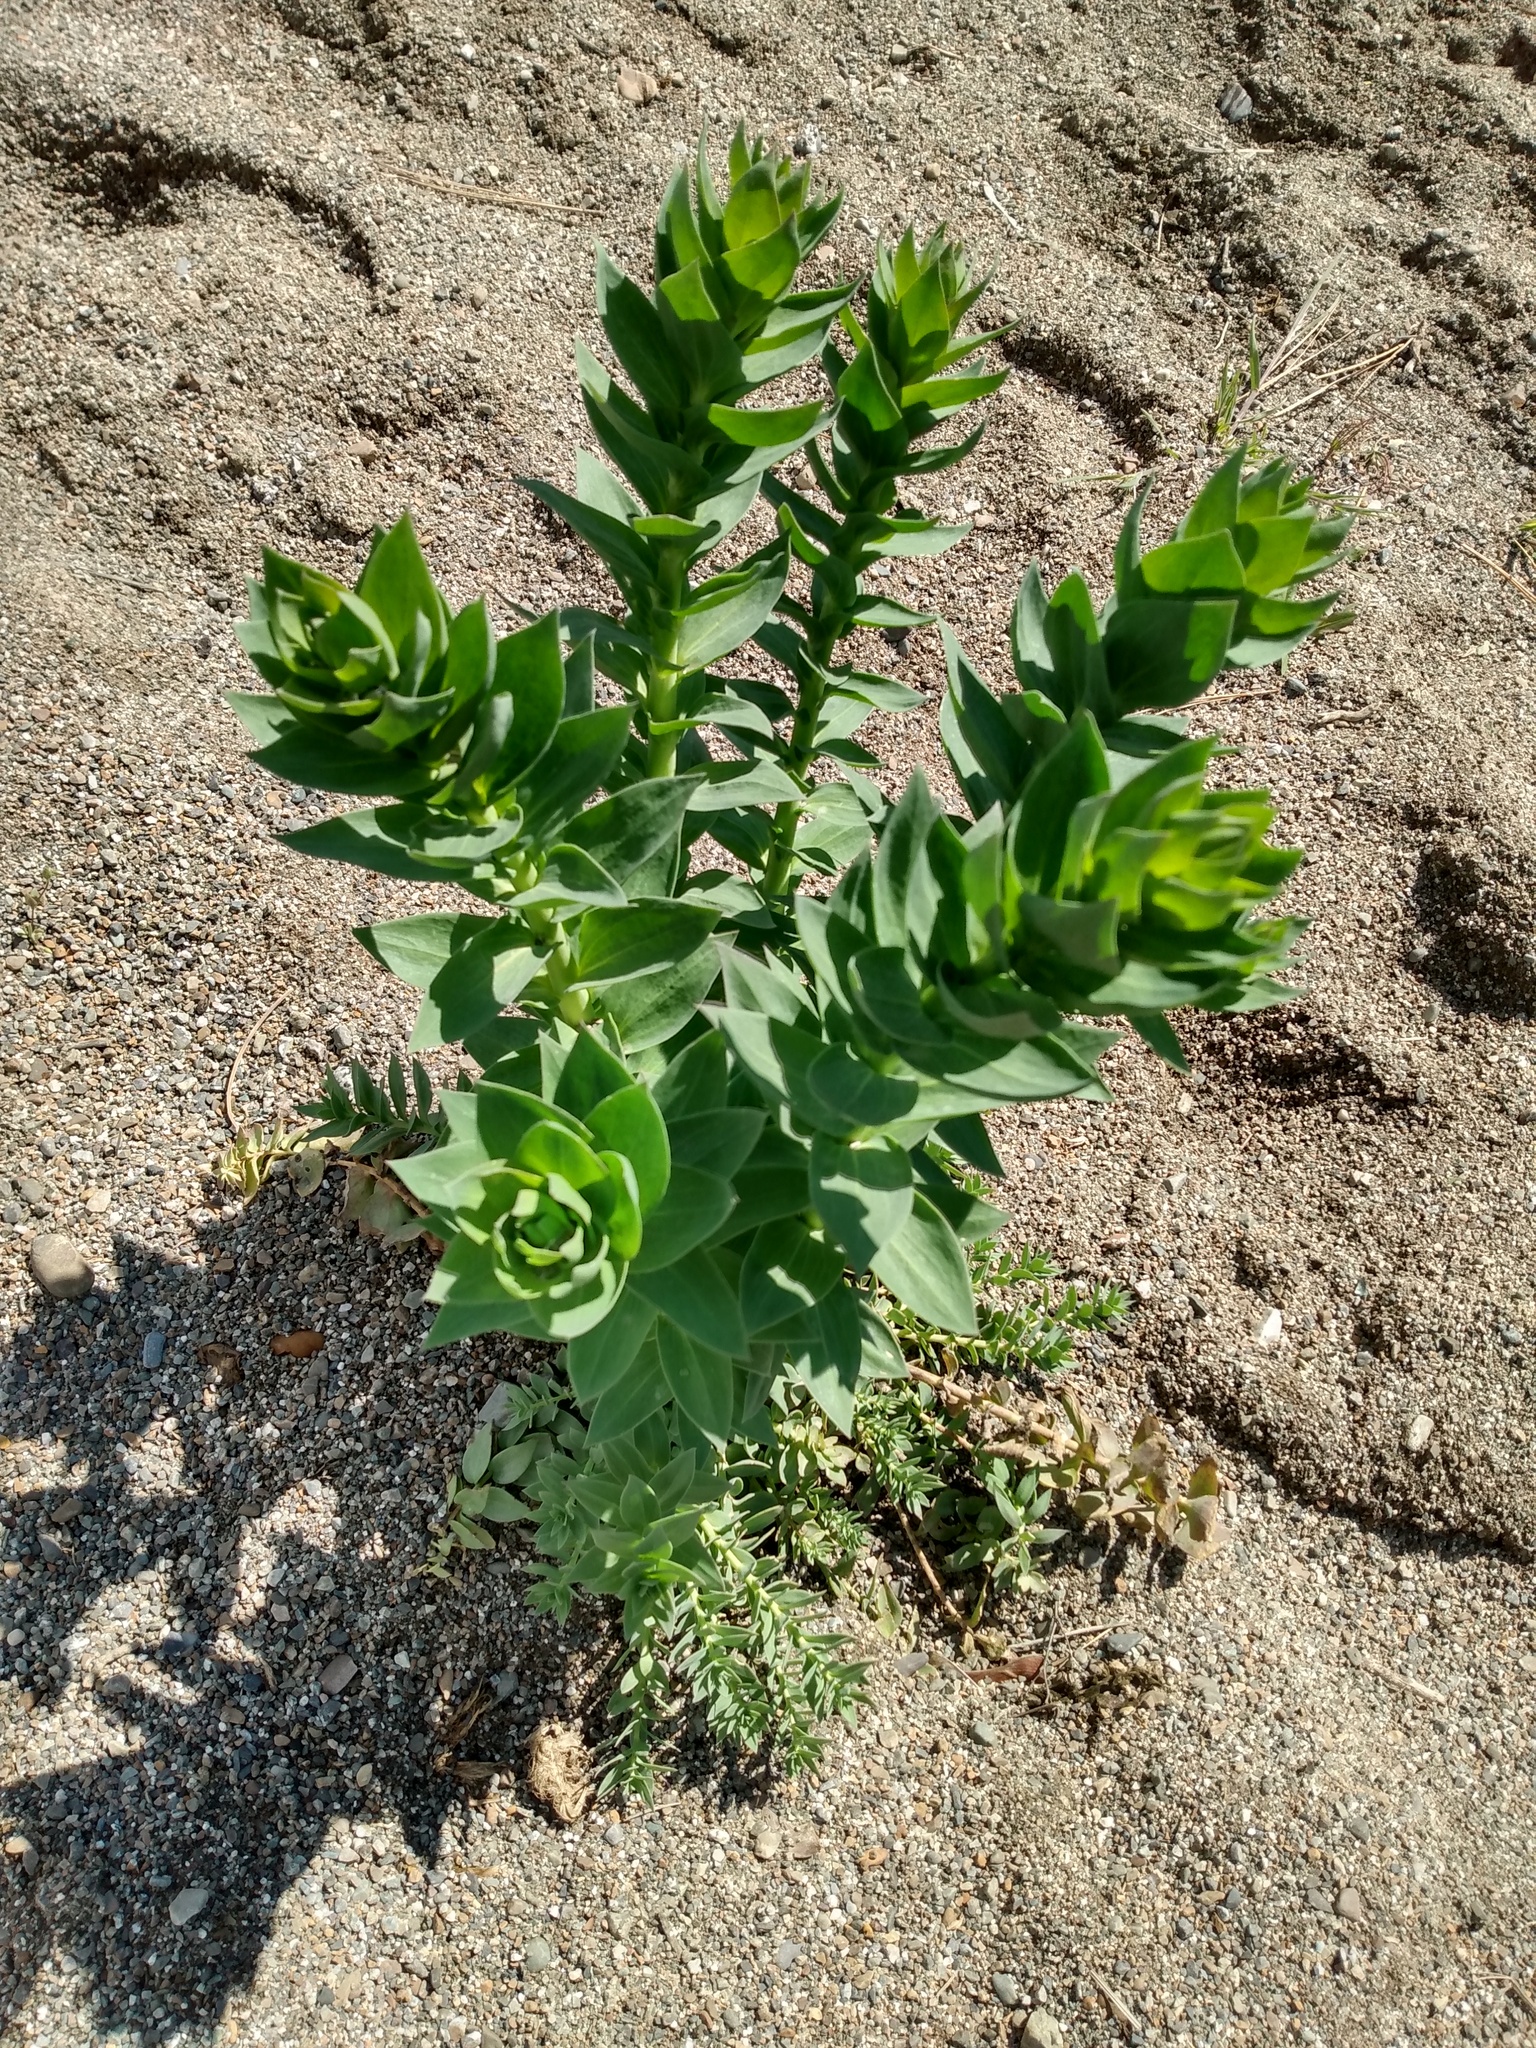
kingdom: Plantae
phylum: Tracheophyta
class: Magnoliopsida
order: Lamiales
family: Plantaginaceae
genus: Linaria
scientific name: Linaria dalmatica
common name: Dalmatian toadflax
